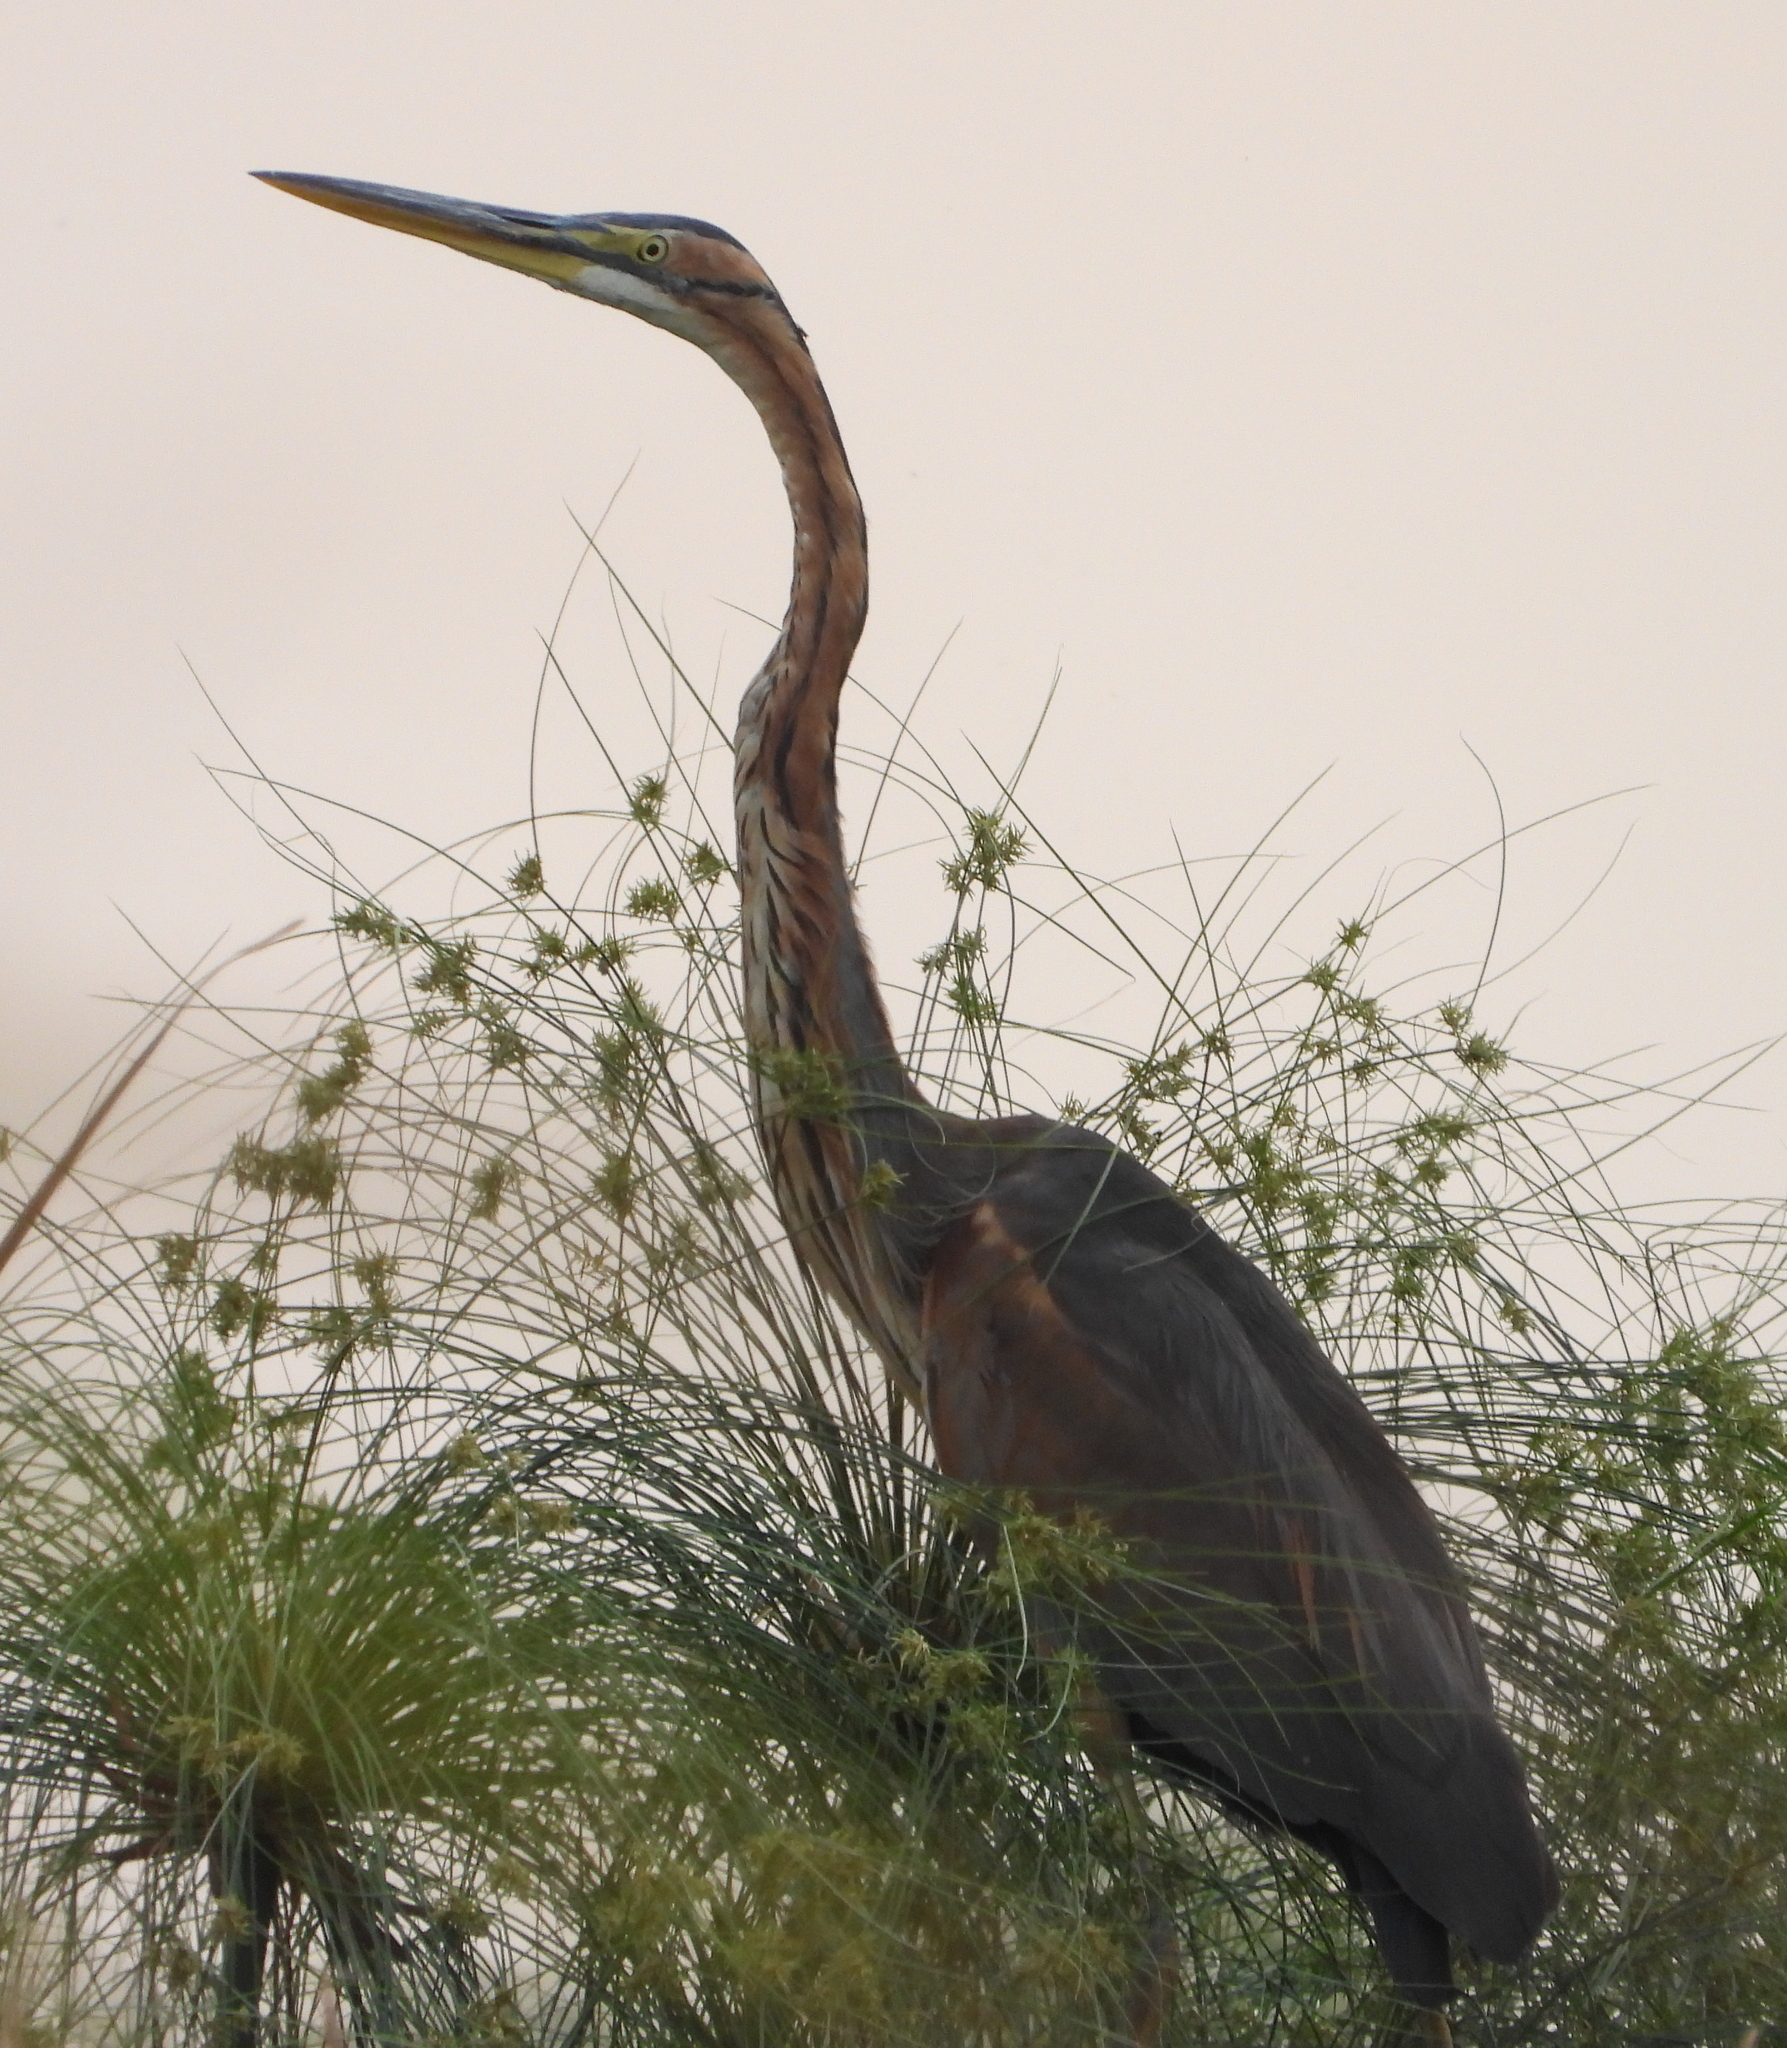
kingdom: Animalia
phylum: Chordata
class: Aves
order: Pelecaniformes
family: Ardeidae
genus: Ardea
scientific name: Ardea purpurea
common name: Purple heron
